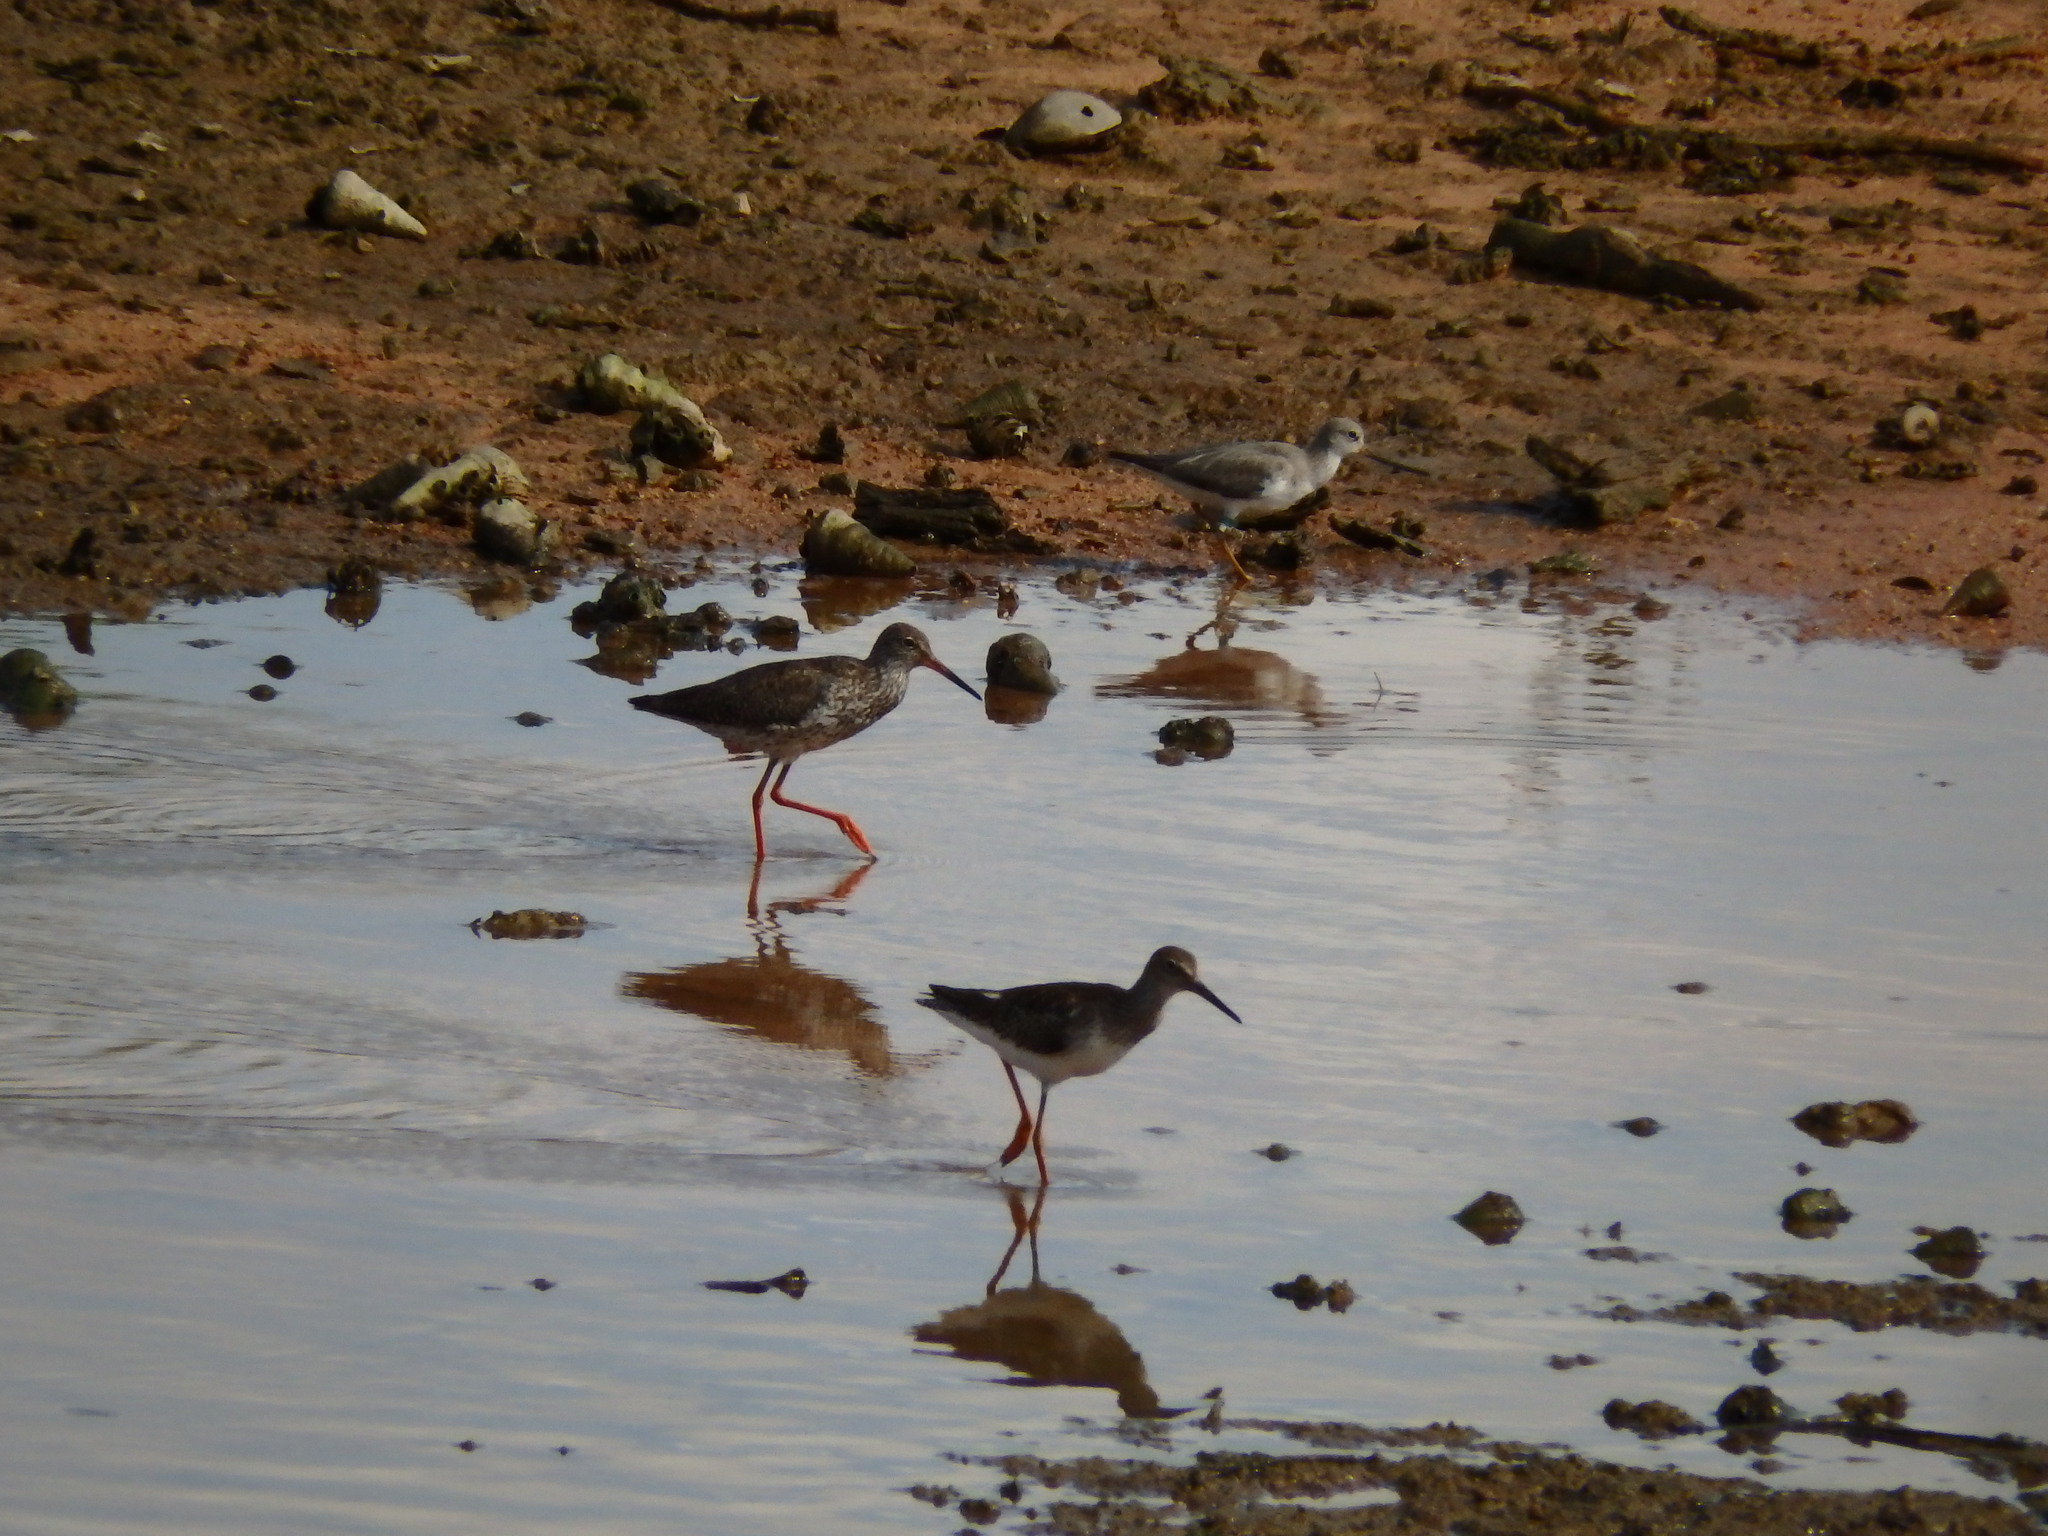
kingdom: Animalia
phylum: Chordata
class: Aves
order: Charadriiformes
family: Scolopacidae
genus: Xenus
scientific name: Xenus cinereus
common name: Terek sandpiper
